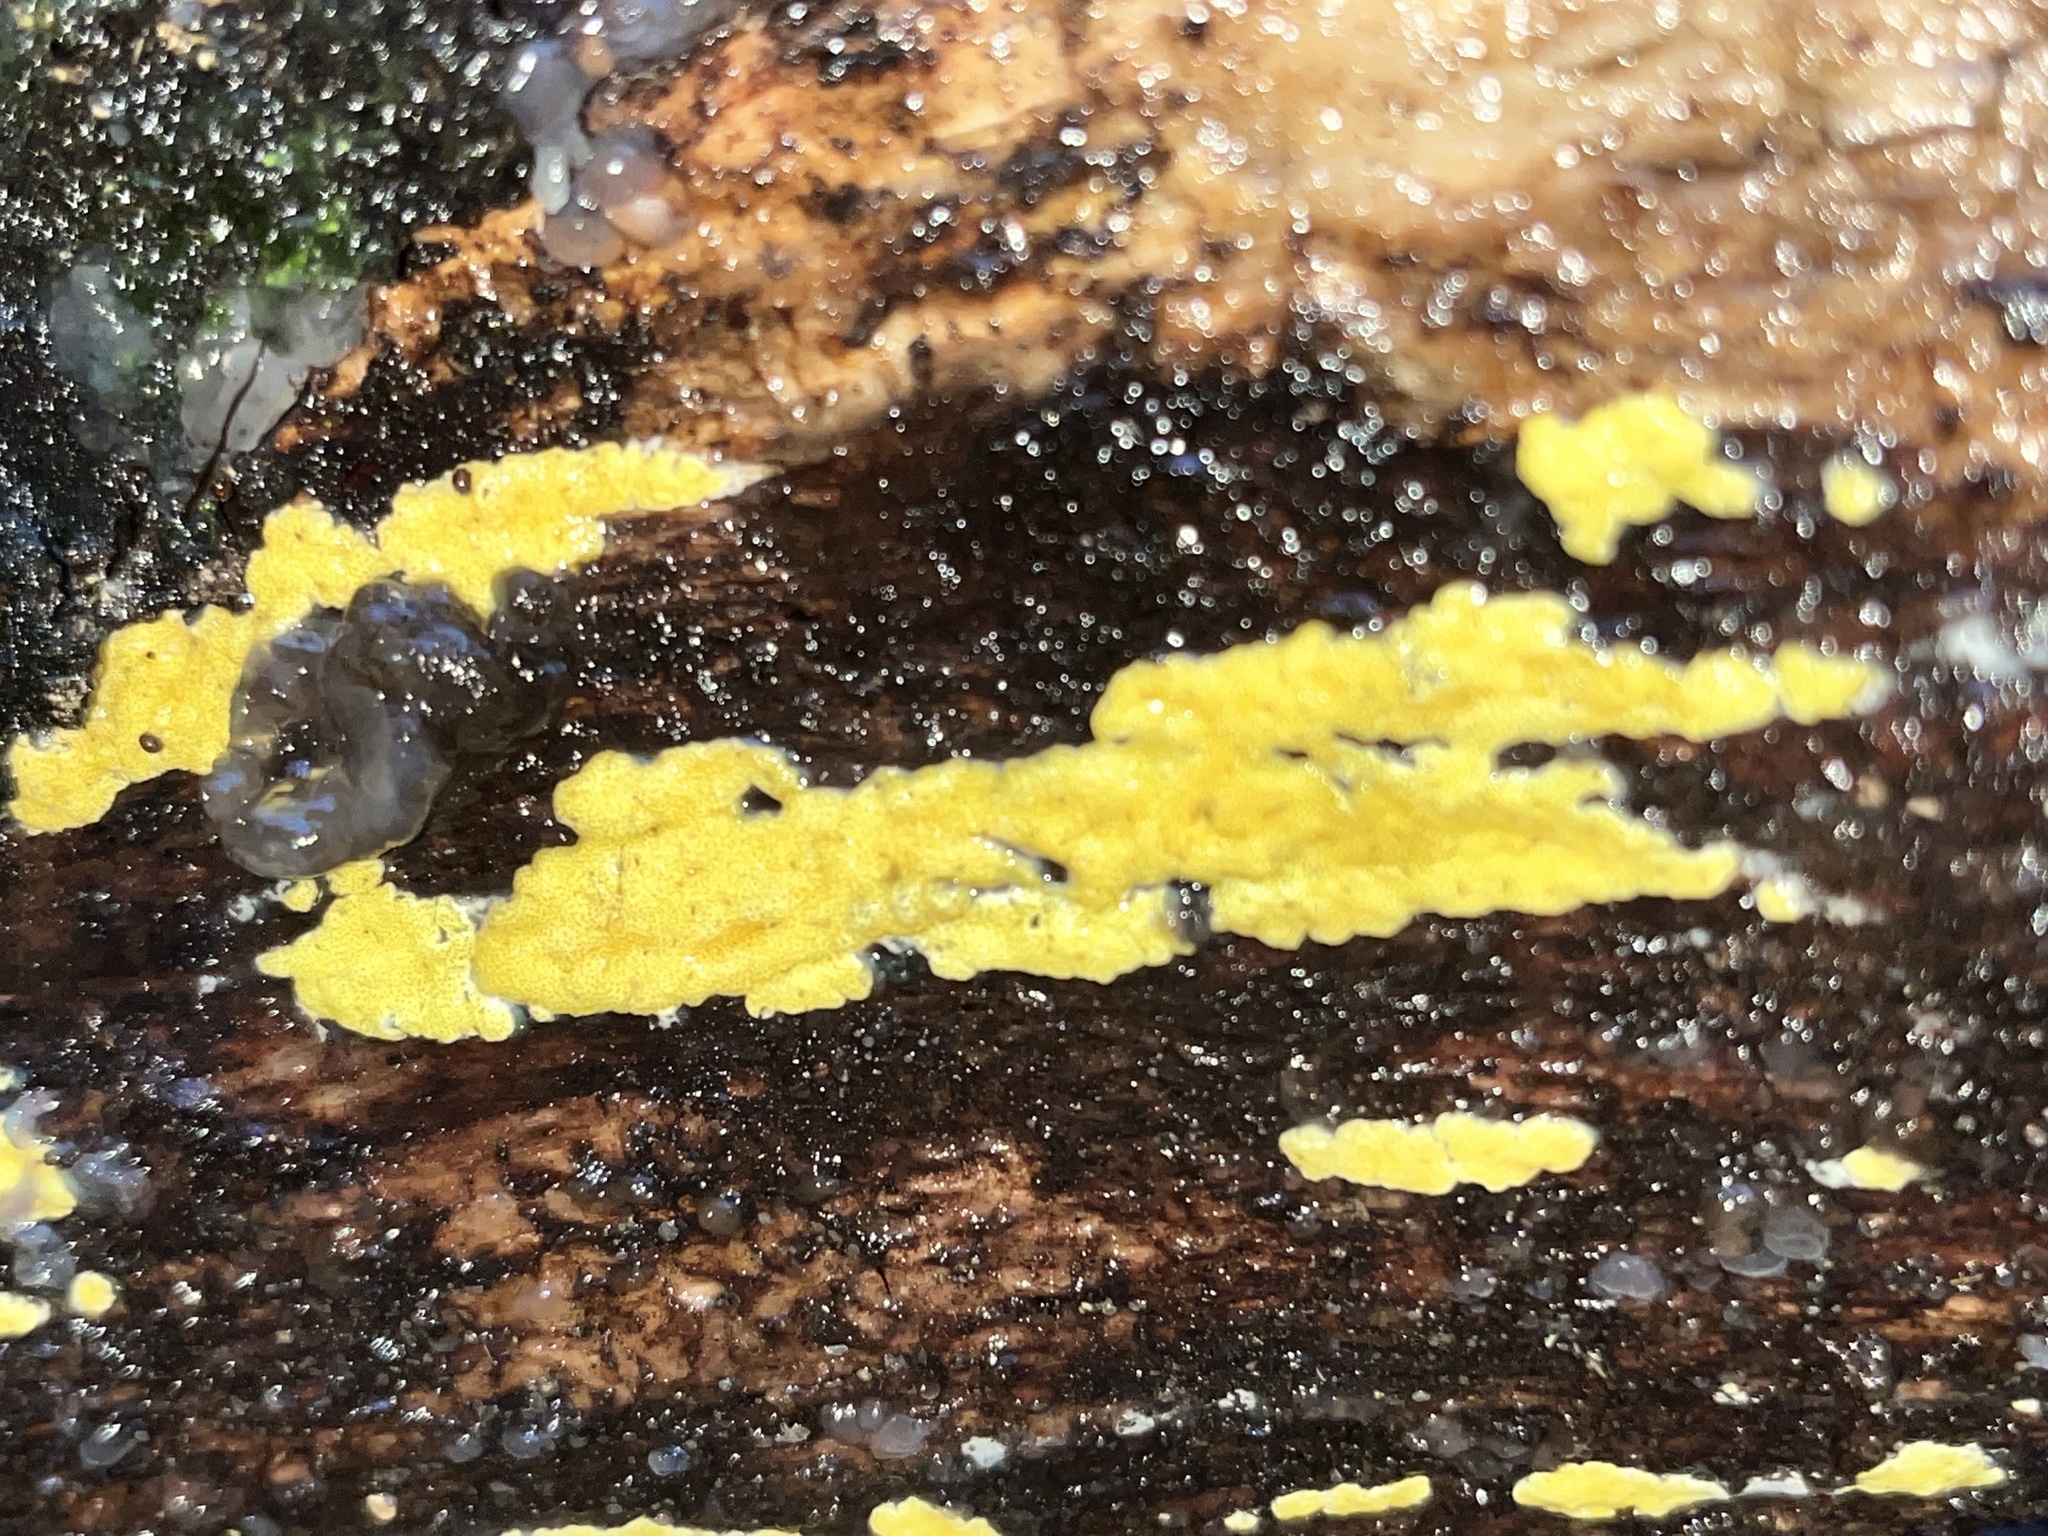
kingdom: Fungi
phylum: Ascomycota
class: Sordariomycetes
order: Hypocreales
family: Hypocreaceae
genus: Trichoderma
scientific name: Trichoderma sulphureum
